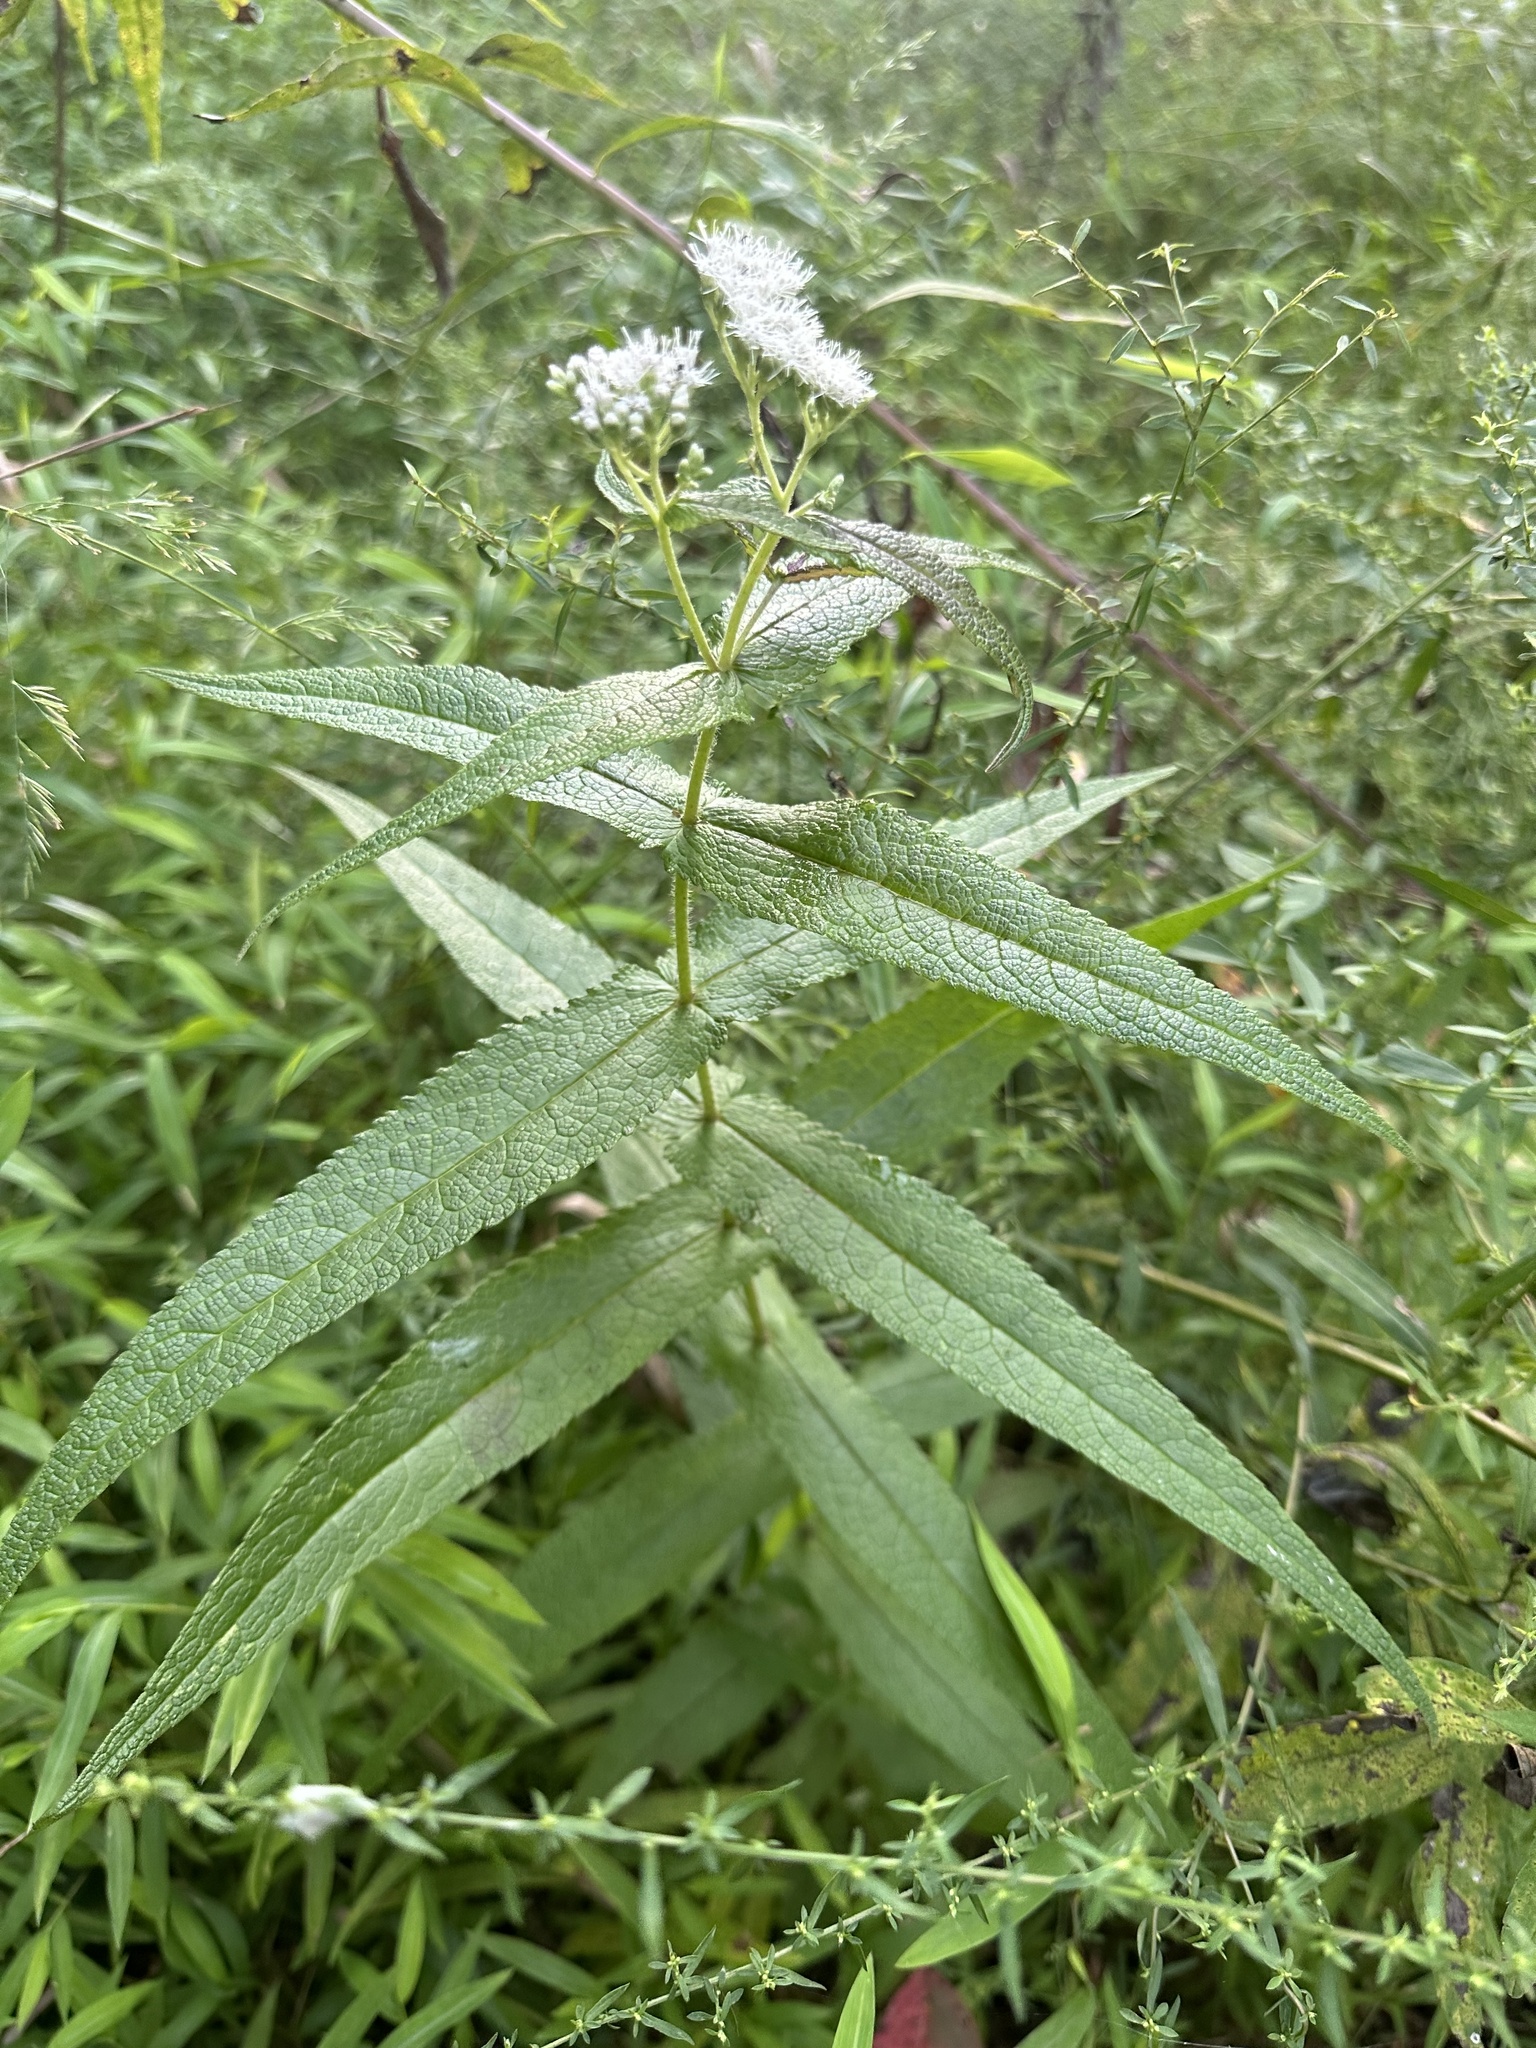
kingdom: Plantae
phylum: Tracheophyta
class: Magnoliopsida
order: Asterales
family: Asteraceae
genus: Eupatorium
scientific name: Eupatorium perfoliatum
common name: Boneset
